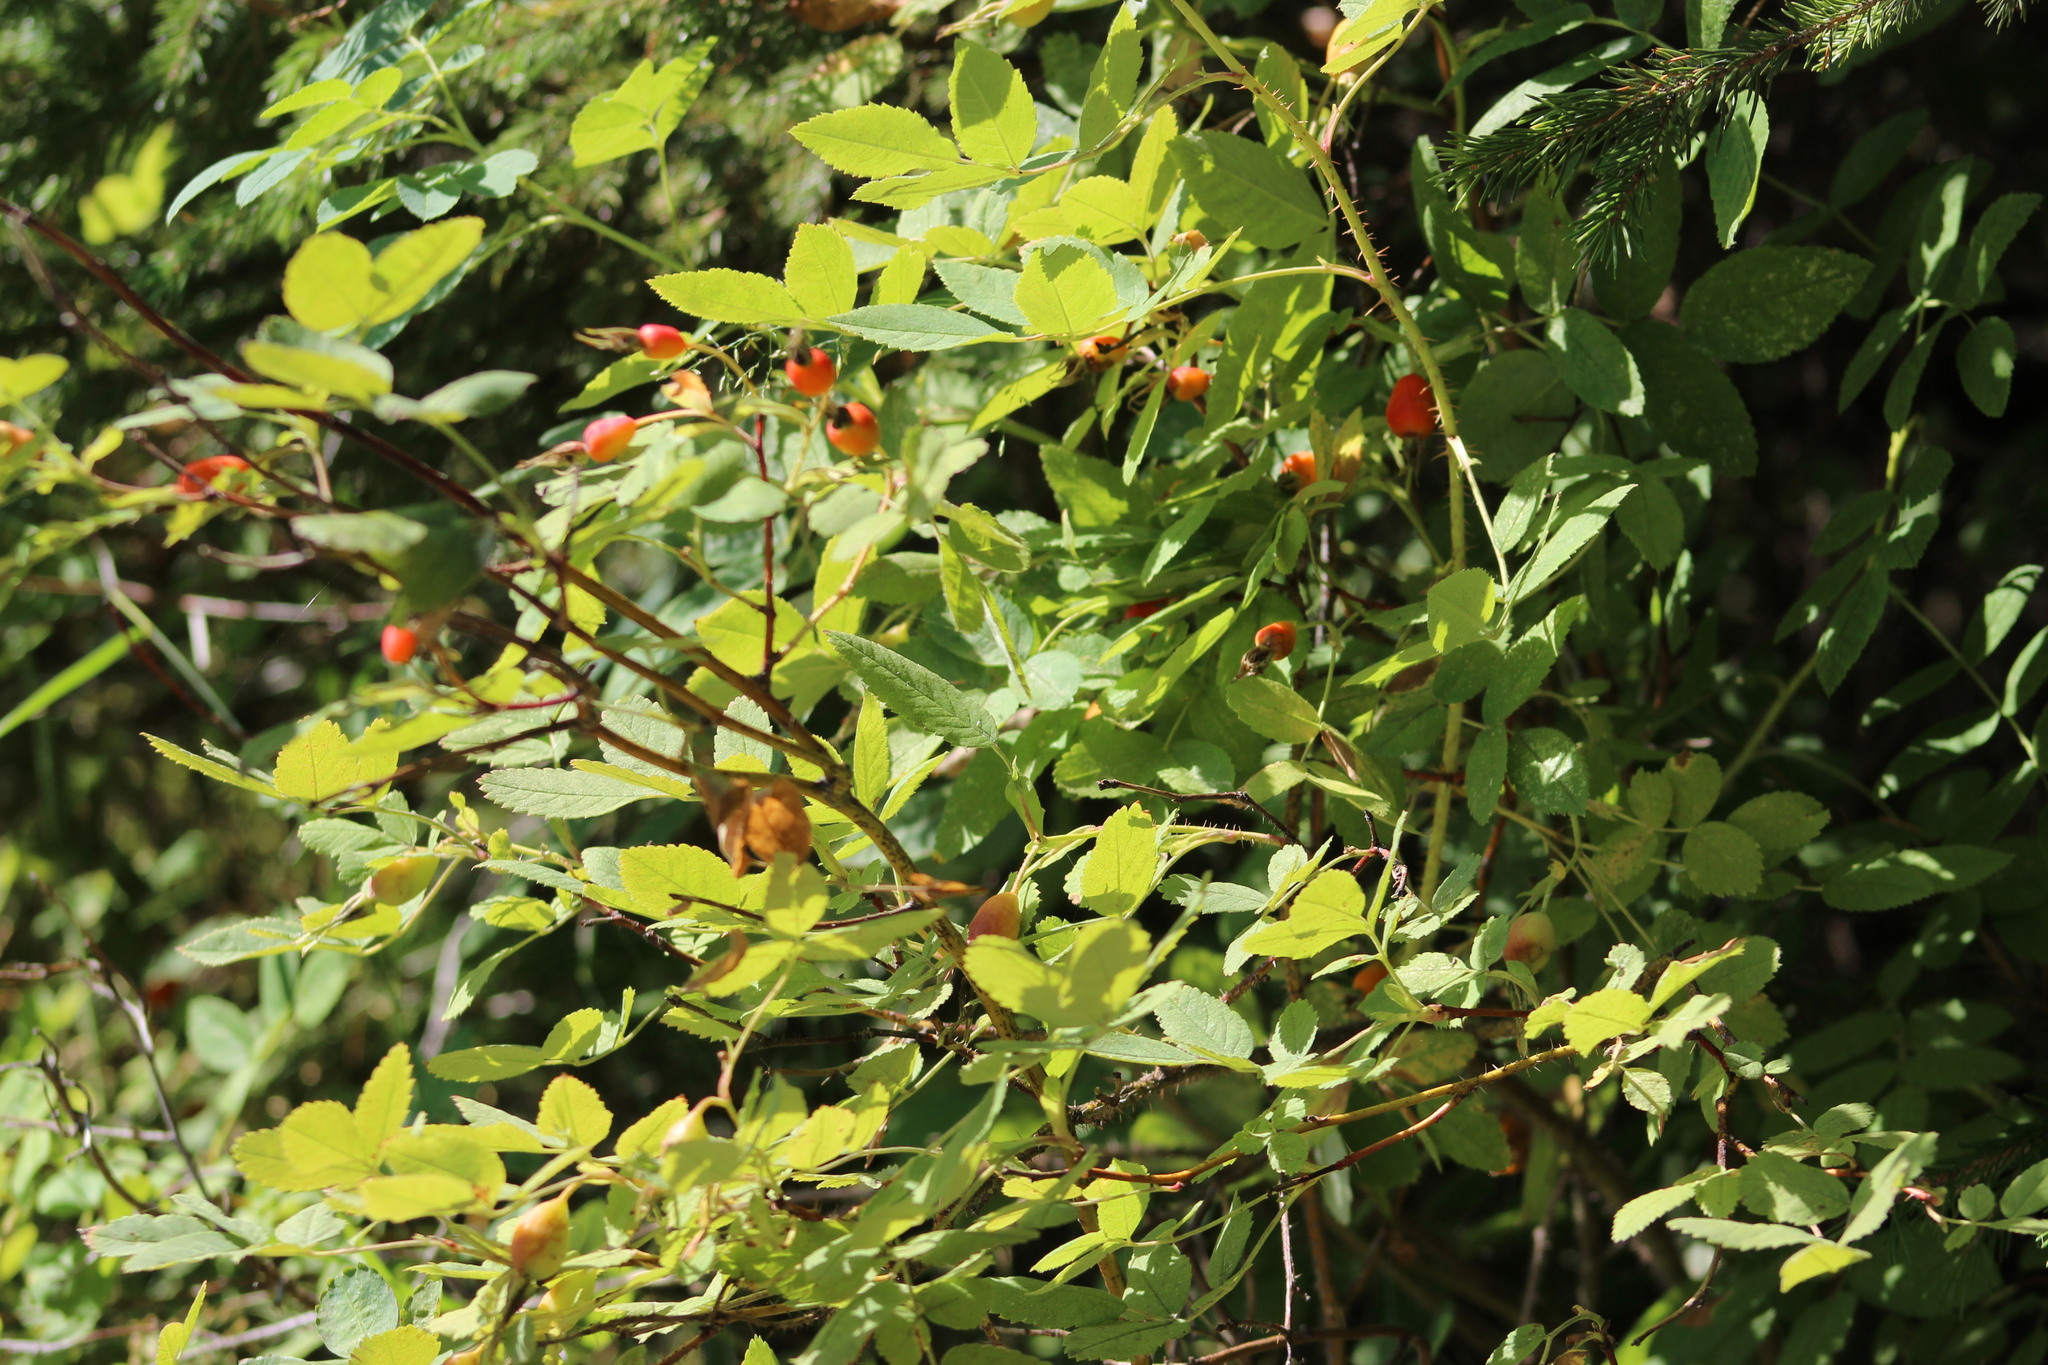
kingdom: Plantae
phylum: Tracheophyta
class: Magnoliopsida
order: Rosales
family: Rosaceae
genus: Rosa
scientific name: Rosa acicularis
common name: Prickly rose
